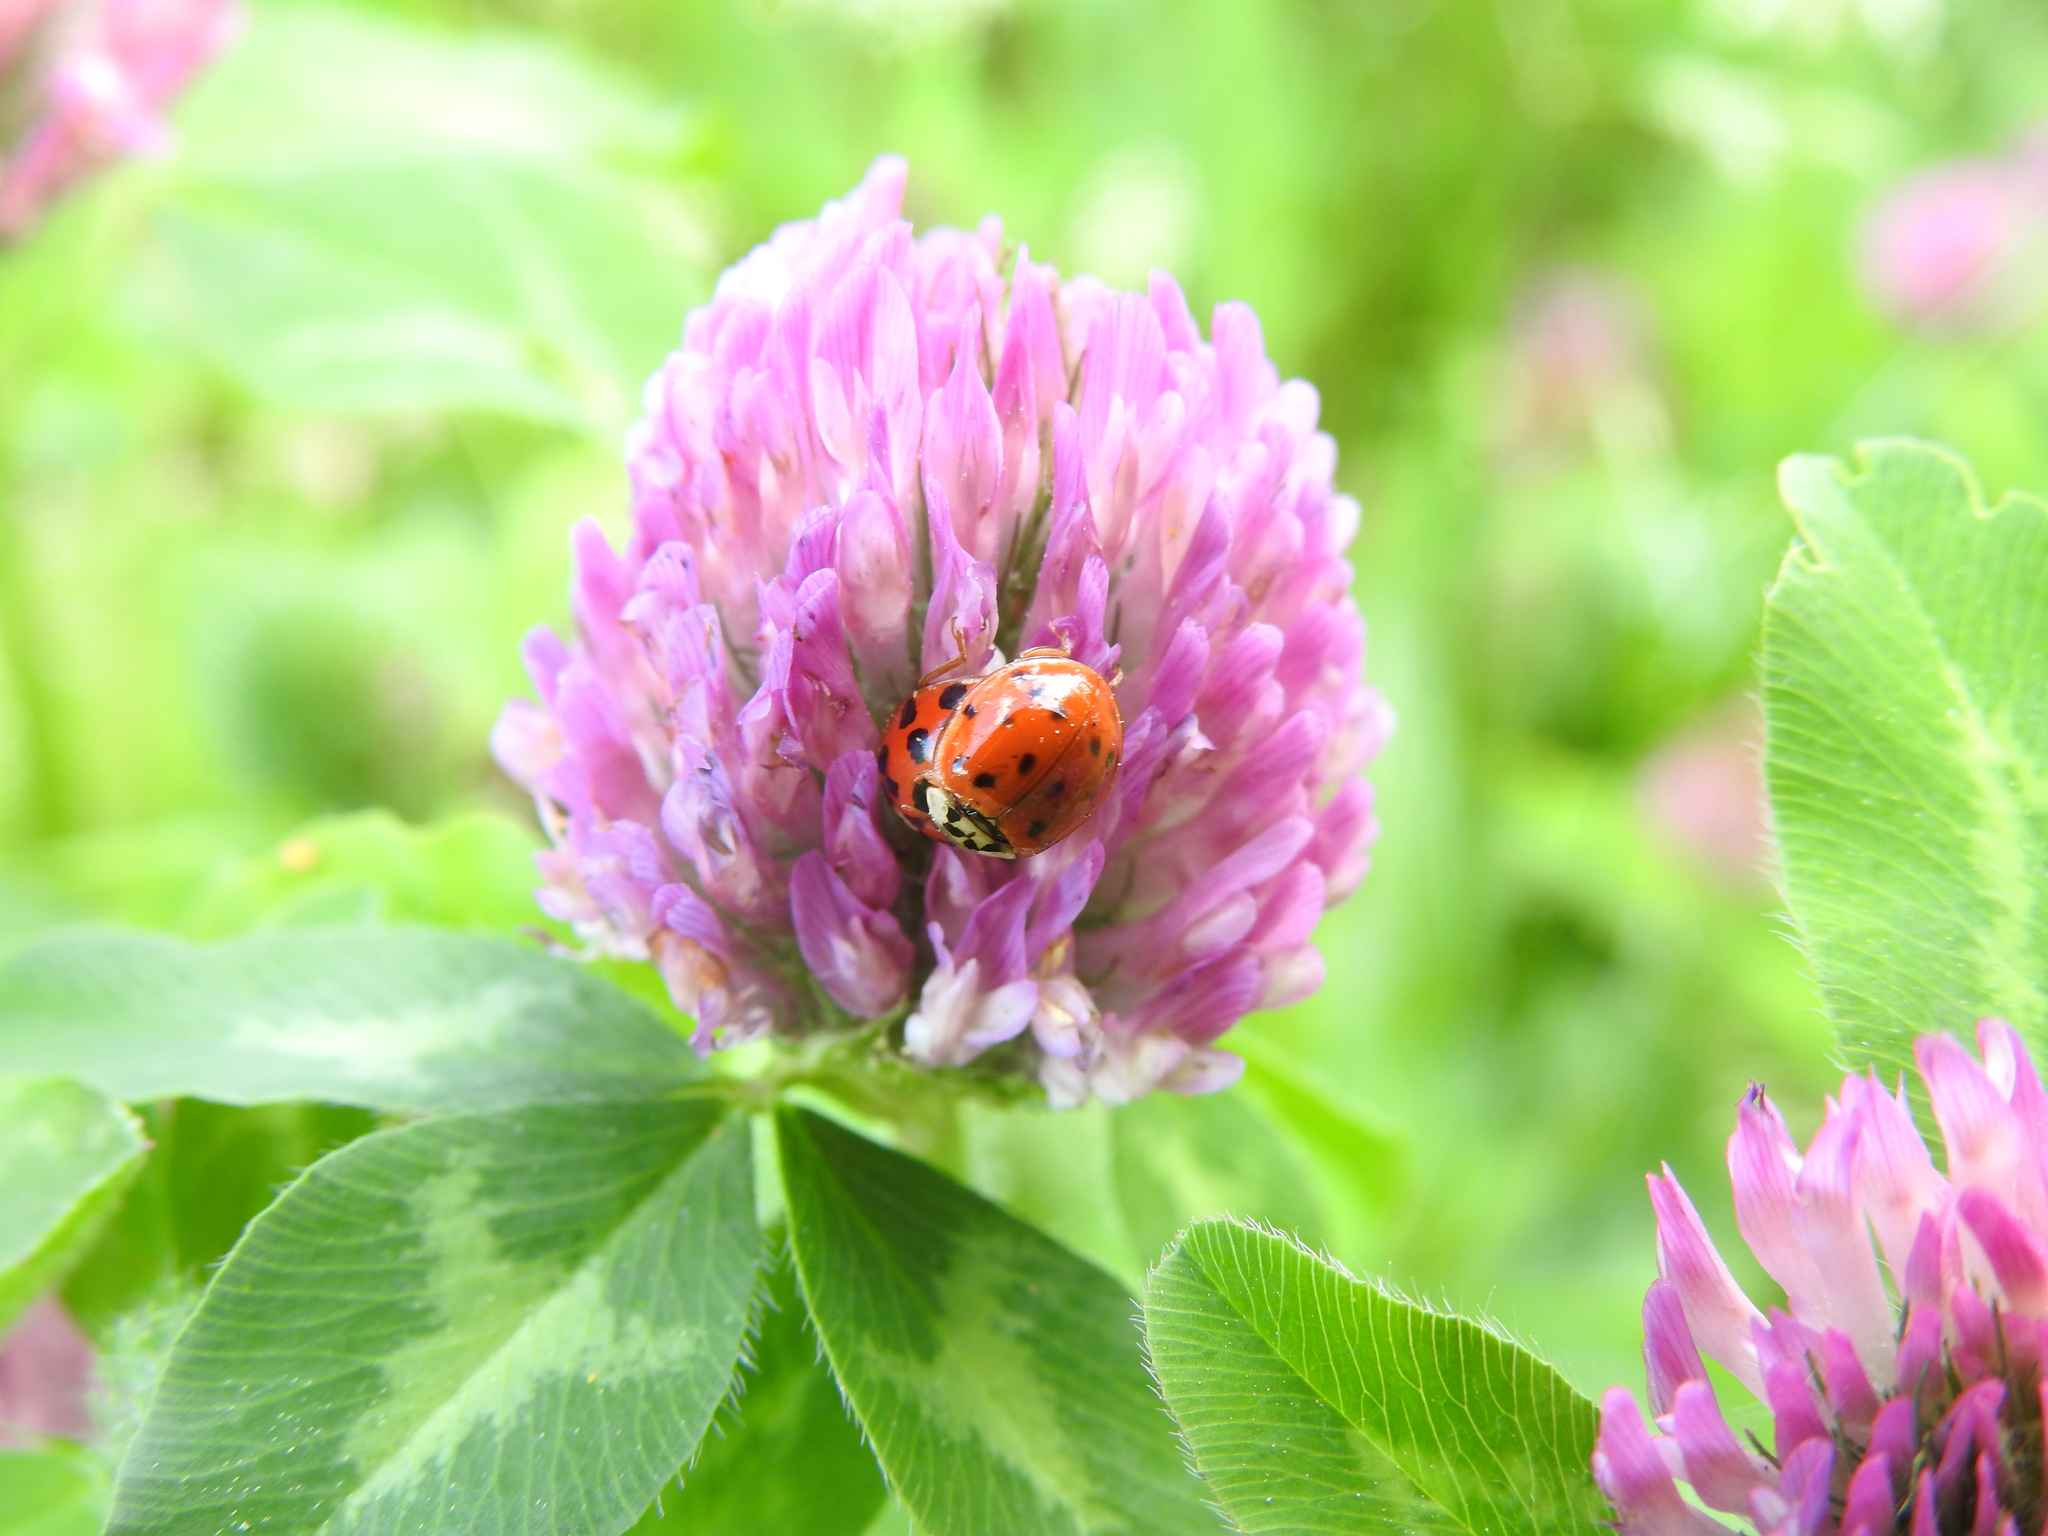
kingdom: Animalia
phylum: Arthropoda
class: Insecta
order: Coleoptera
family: Coccinellidae
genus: Harmonia
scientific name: Harmonia axyridis
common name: Harlequin ladybird
